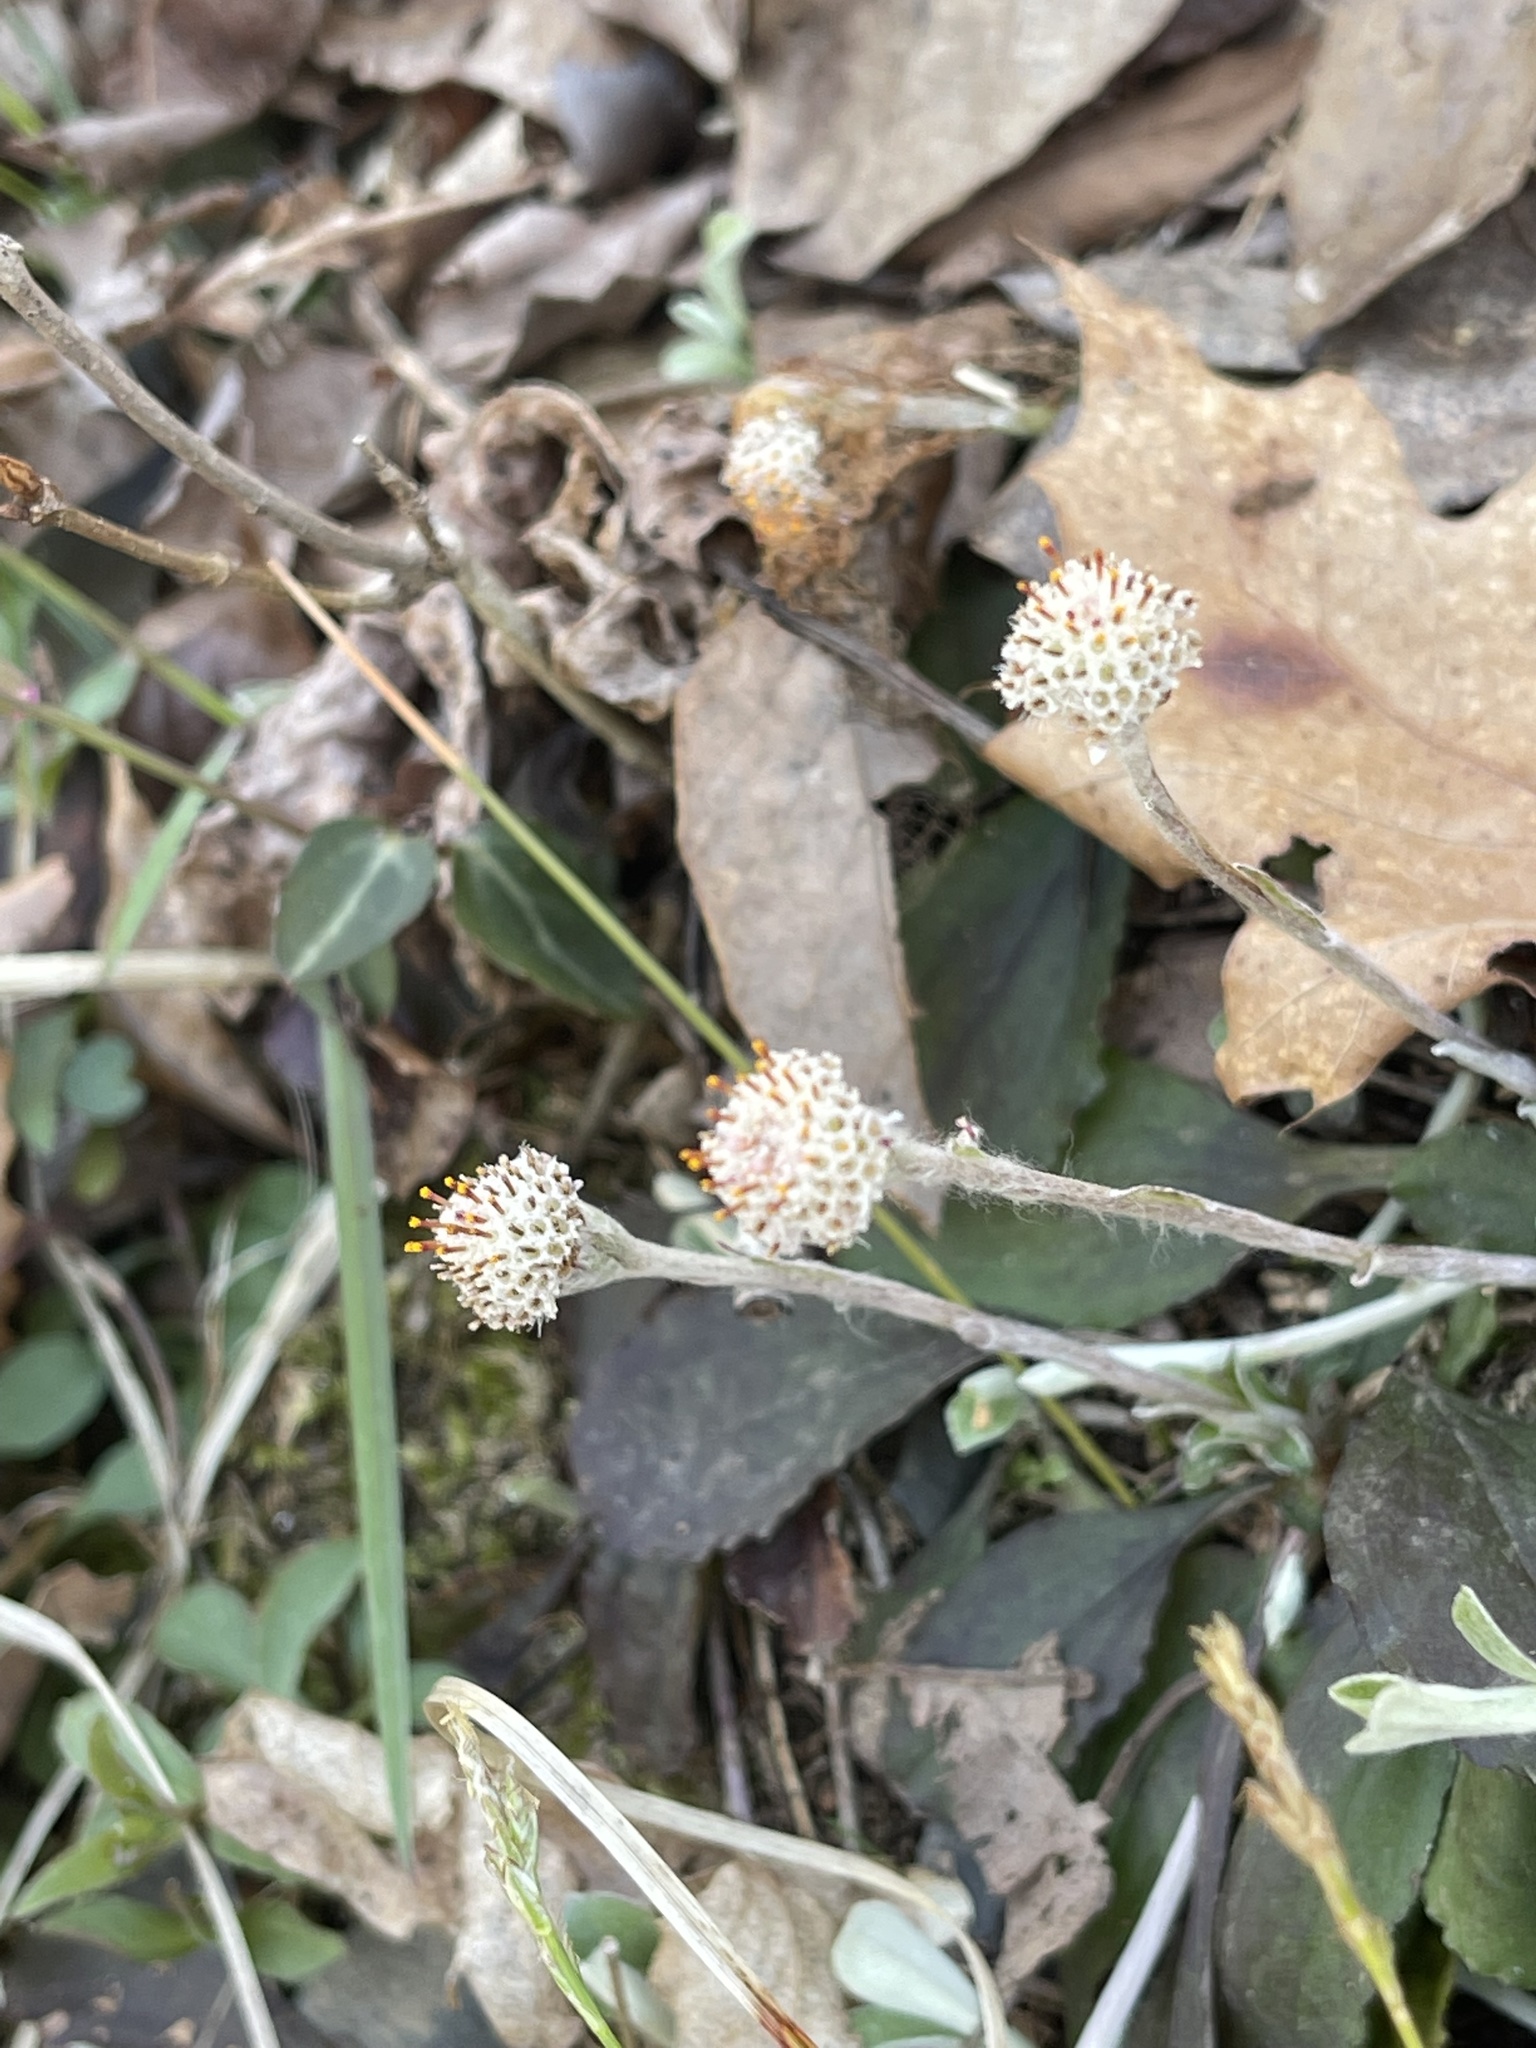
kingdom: Plantae
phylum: Tracheophyta
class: Magnoliopsida
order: Asterales
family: Asteraceae
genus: Antennaria
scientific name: Antennaria solitaria
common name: Single-head pussytoes
